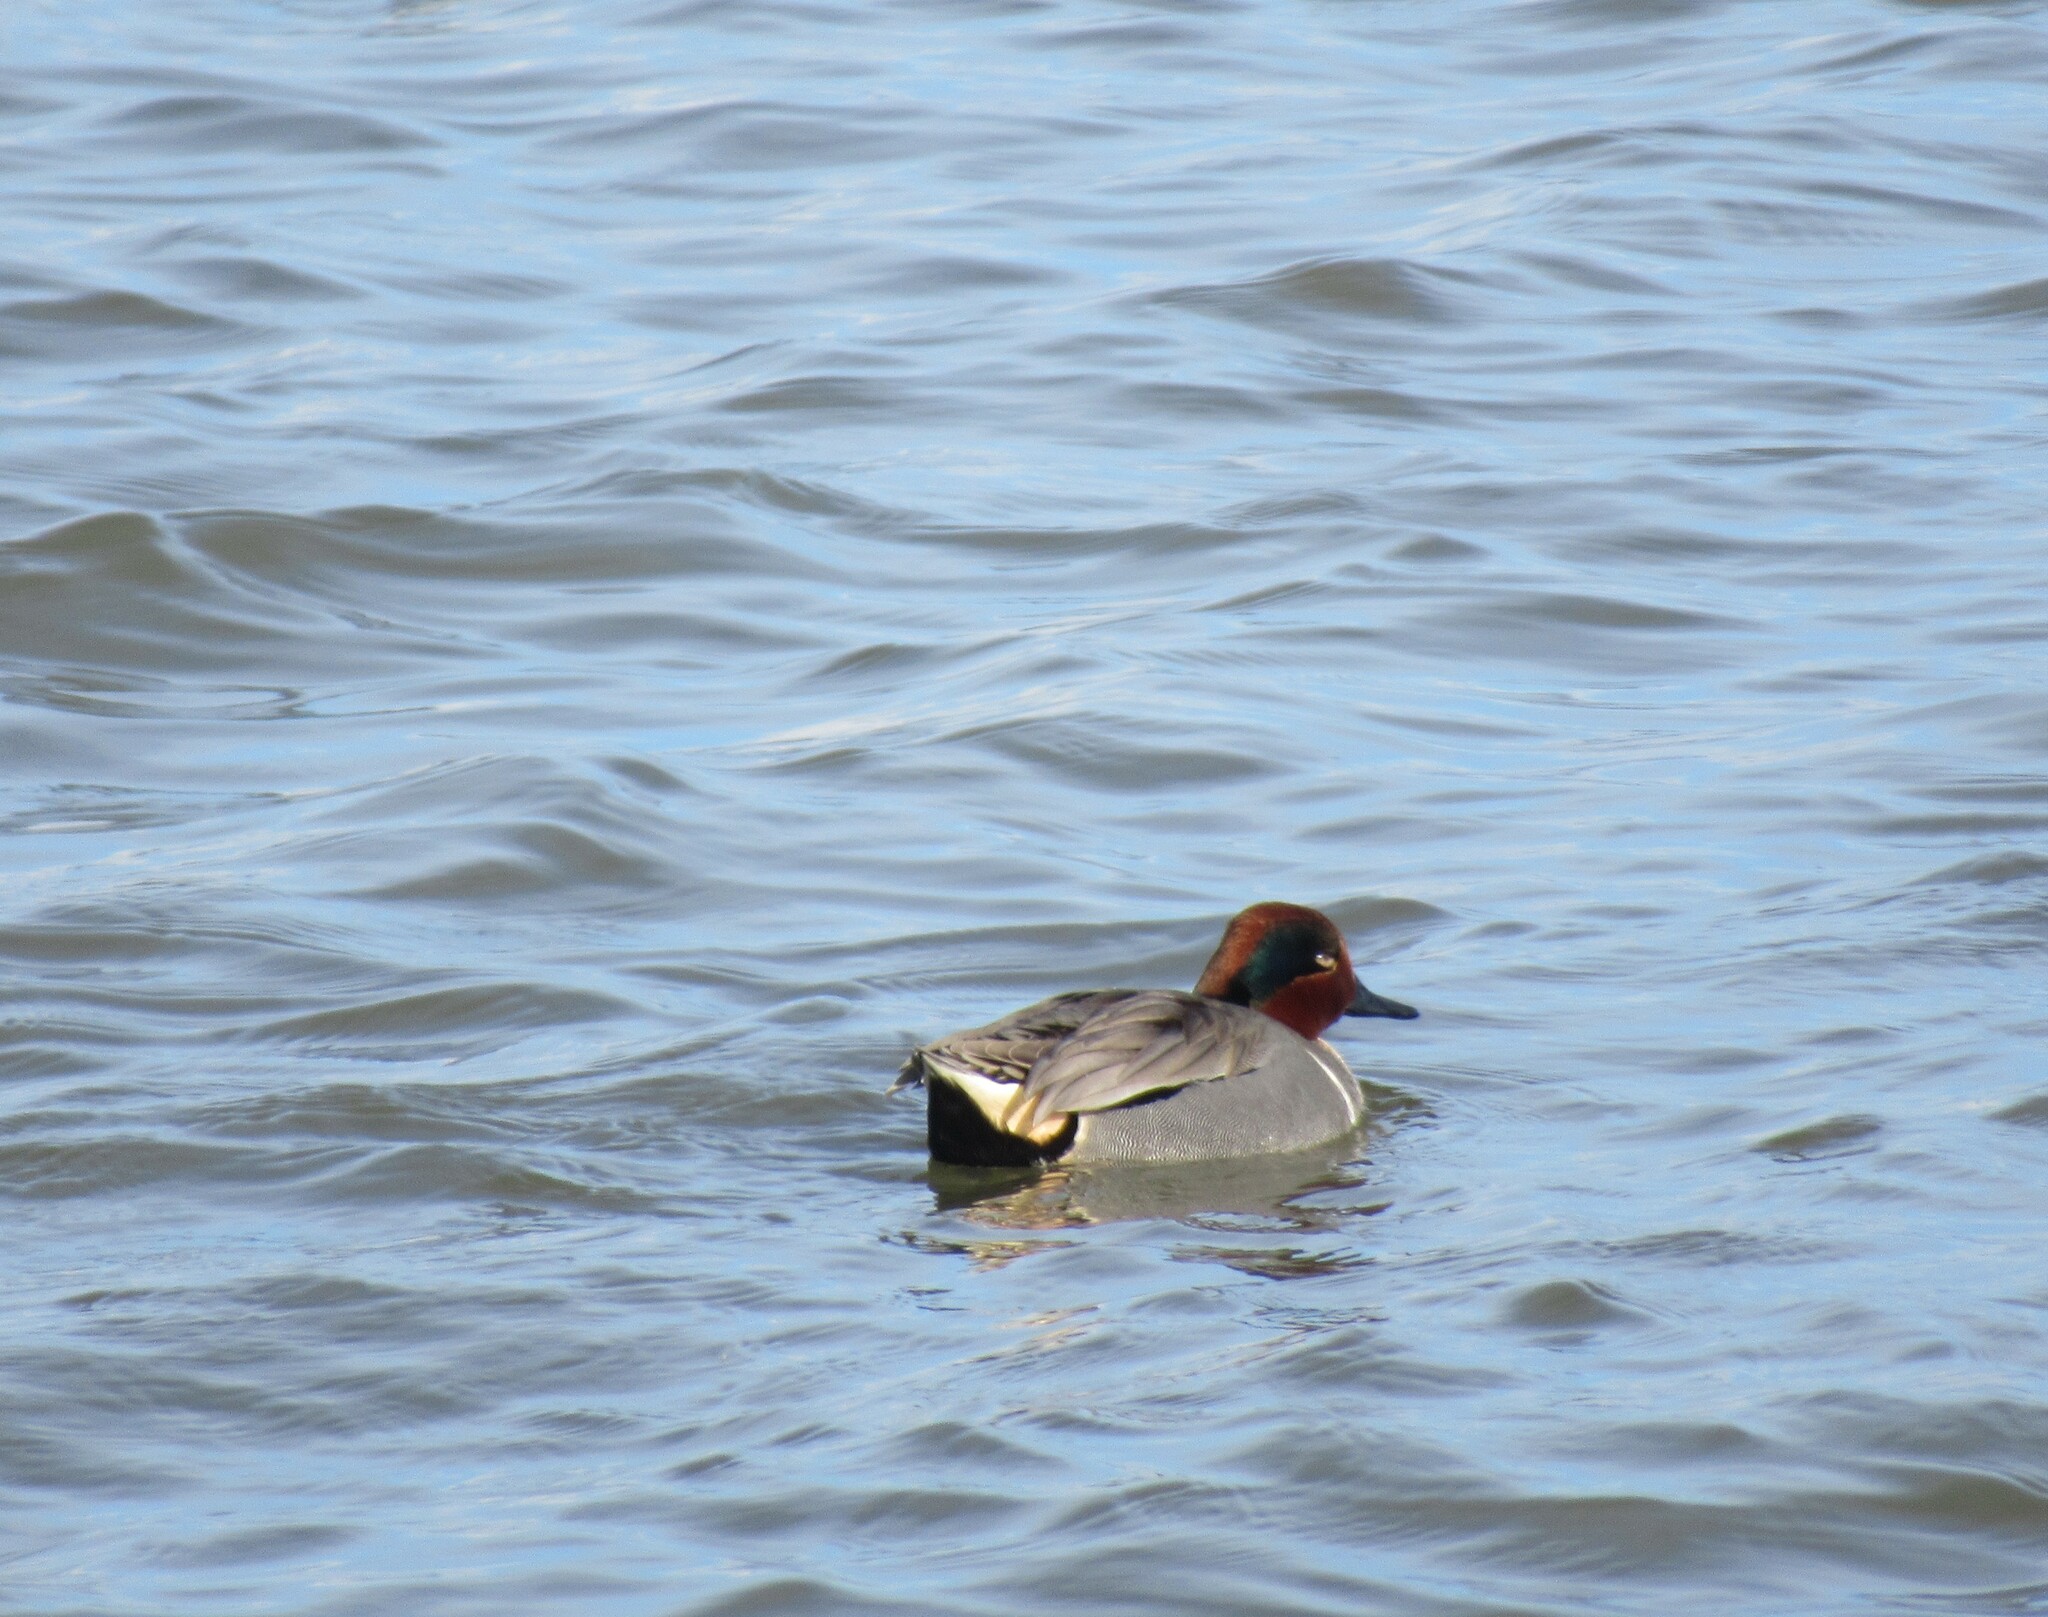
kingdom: Animalia
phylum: Chordata
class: Aves
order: Anseriformes
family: Anatidae
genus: Anas
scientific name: Anas crecca
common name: Eurasian teal
